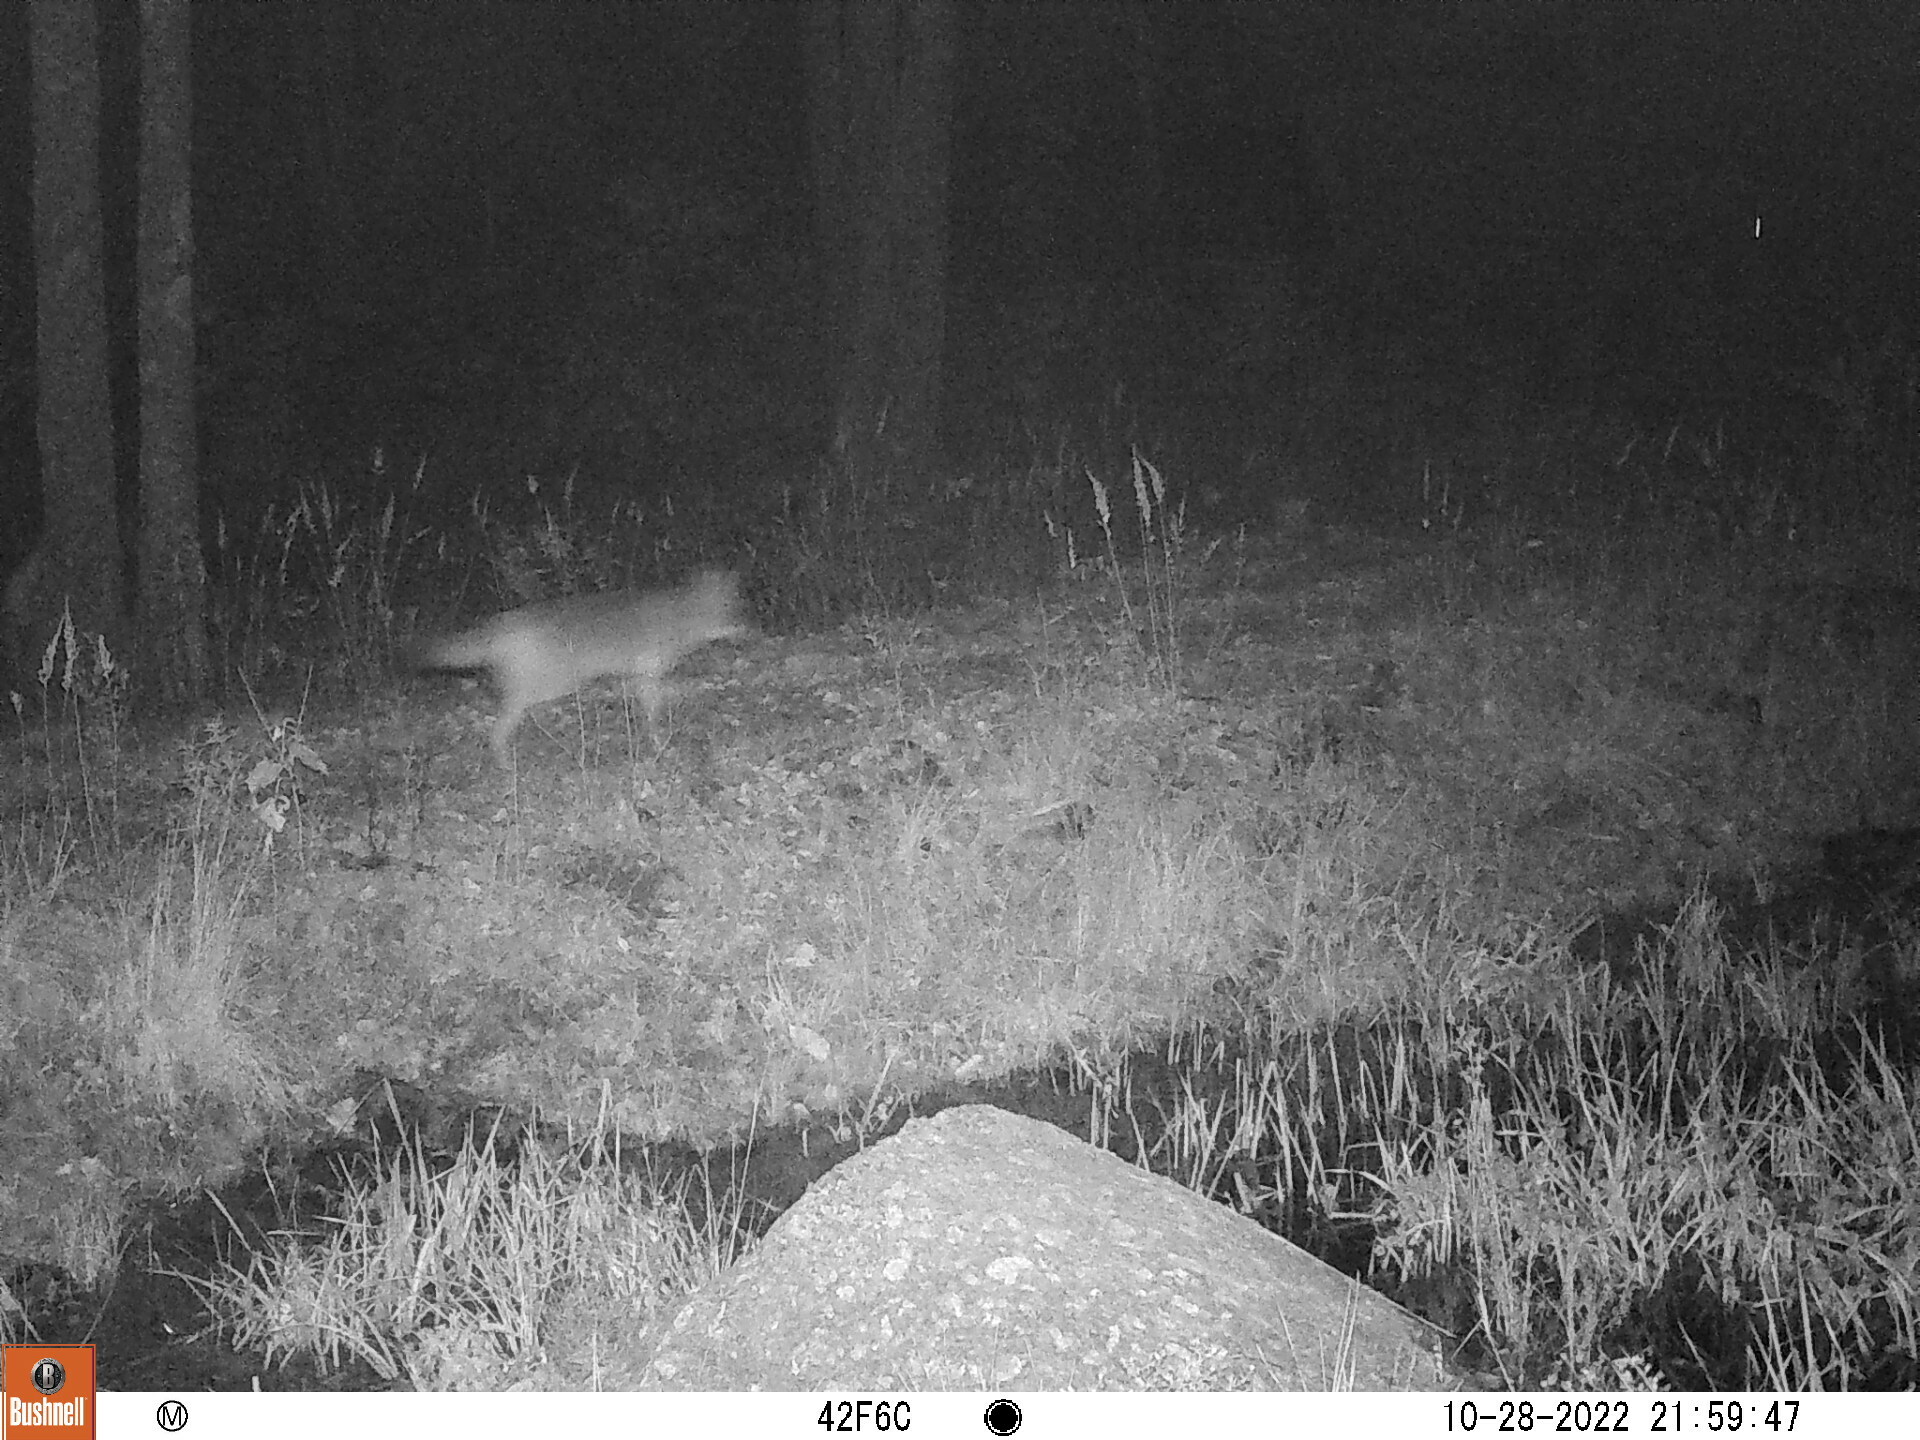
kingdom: Animalia
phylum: Chordata
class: Mammalia
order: Carnivora
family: Canidae
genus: Canis
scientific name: Canis latrans
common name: Coyote
